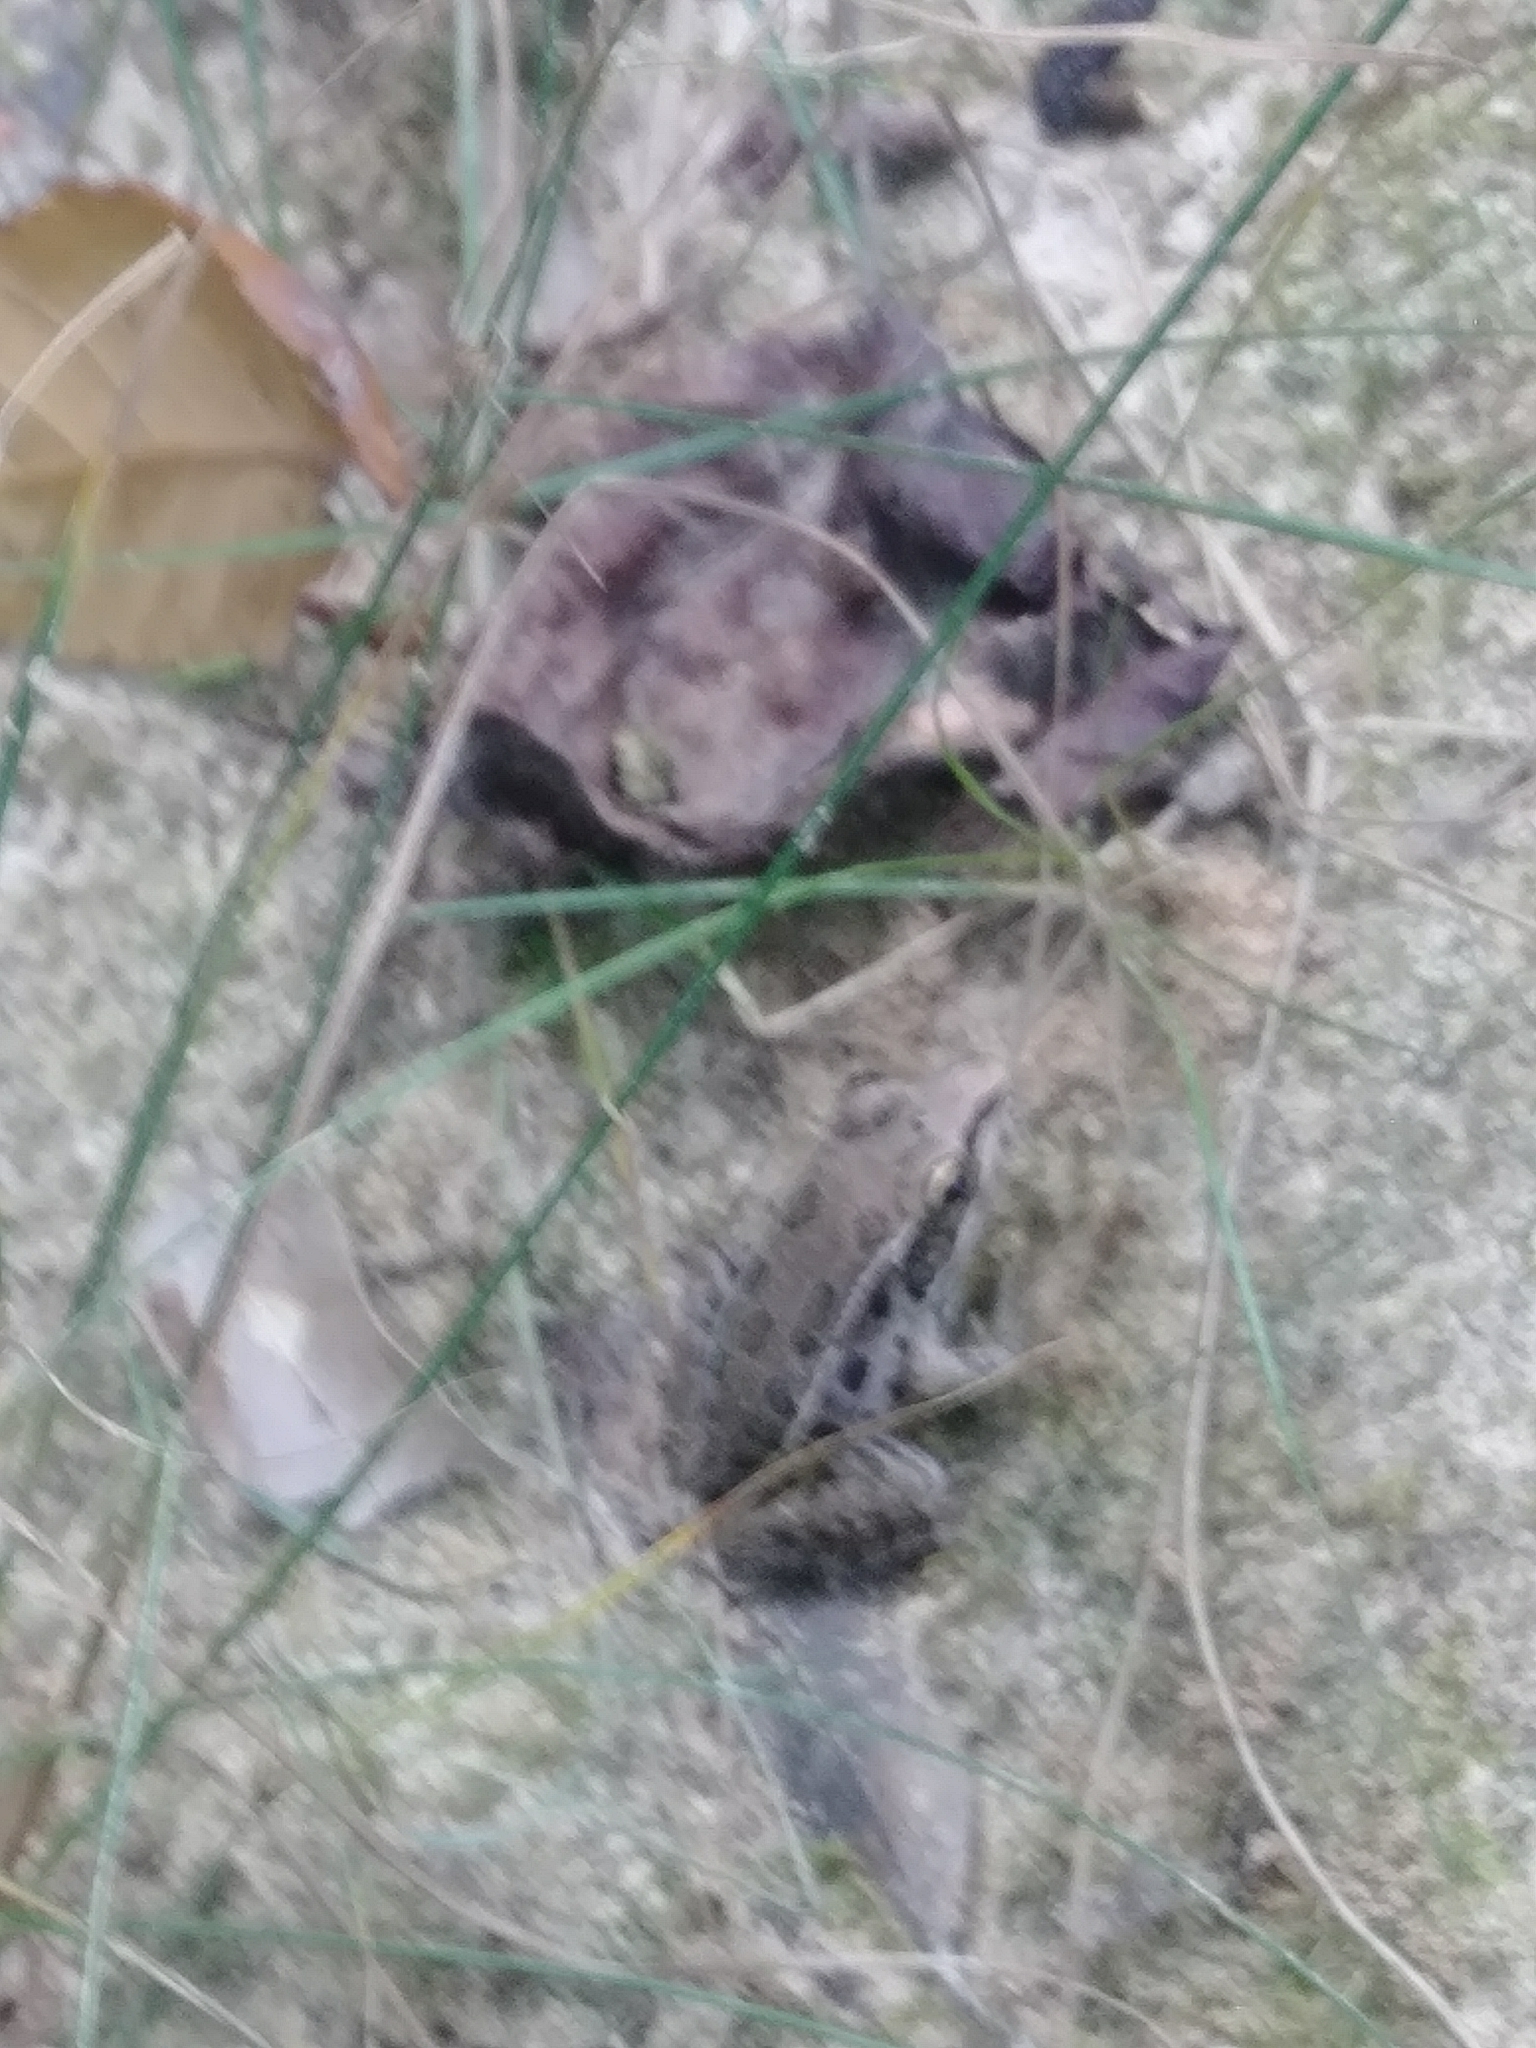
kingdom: Animalia
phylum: Chordata
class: Amphibia
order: Anura
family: Ranidae
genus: Lithobates
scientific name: Lithobates sphenocephalus
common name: Southern leopard frog
